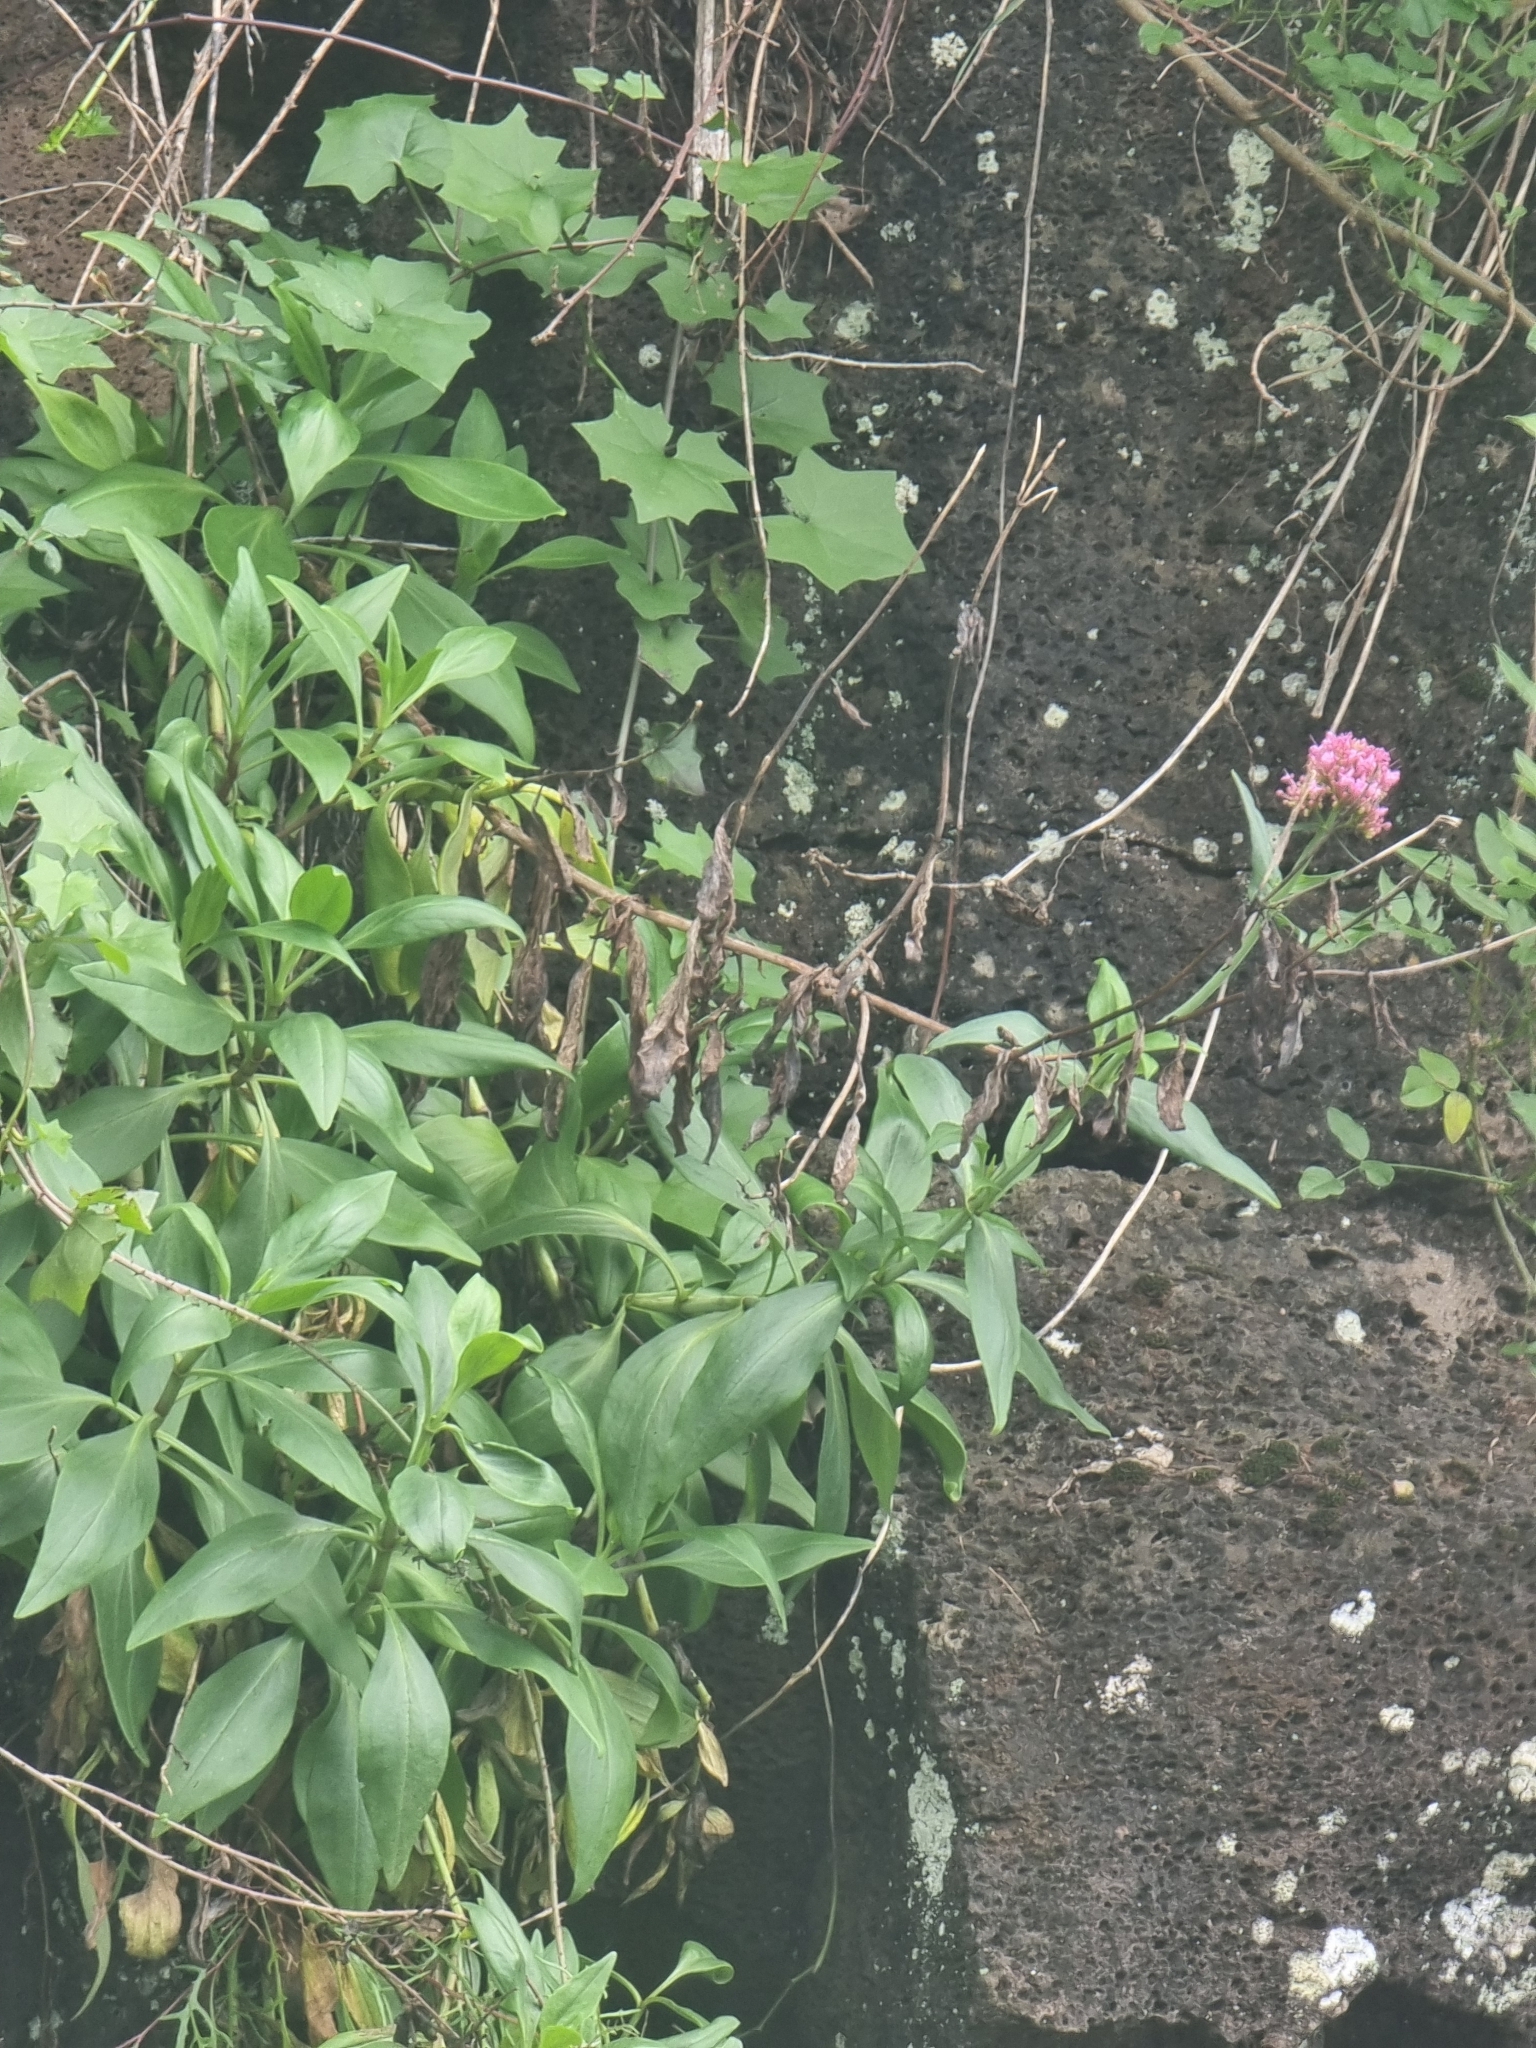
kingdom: Plantae
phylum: Tracheophyta
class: Magnoliopsida
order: Dipsacales
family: Caprifoliaceae
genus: Centranthus
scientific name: Centranthus ruber
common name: Red valerian
